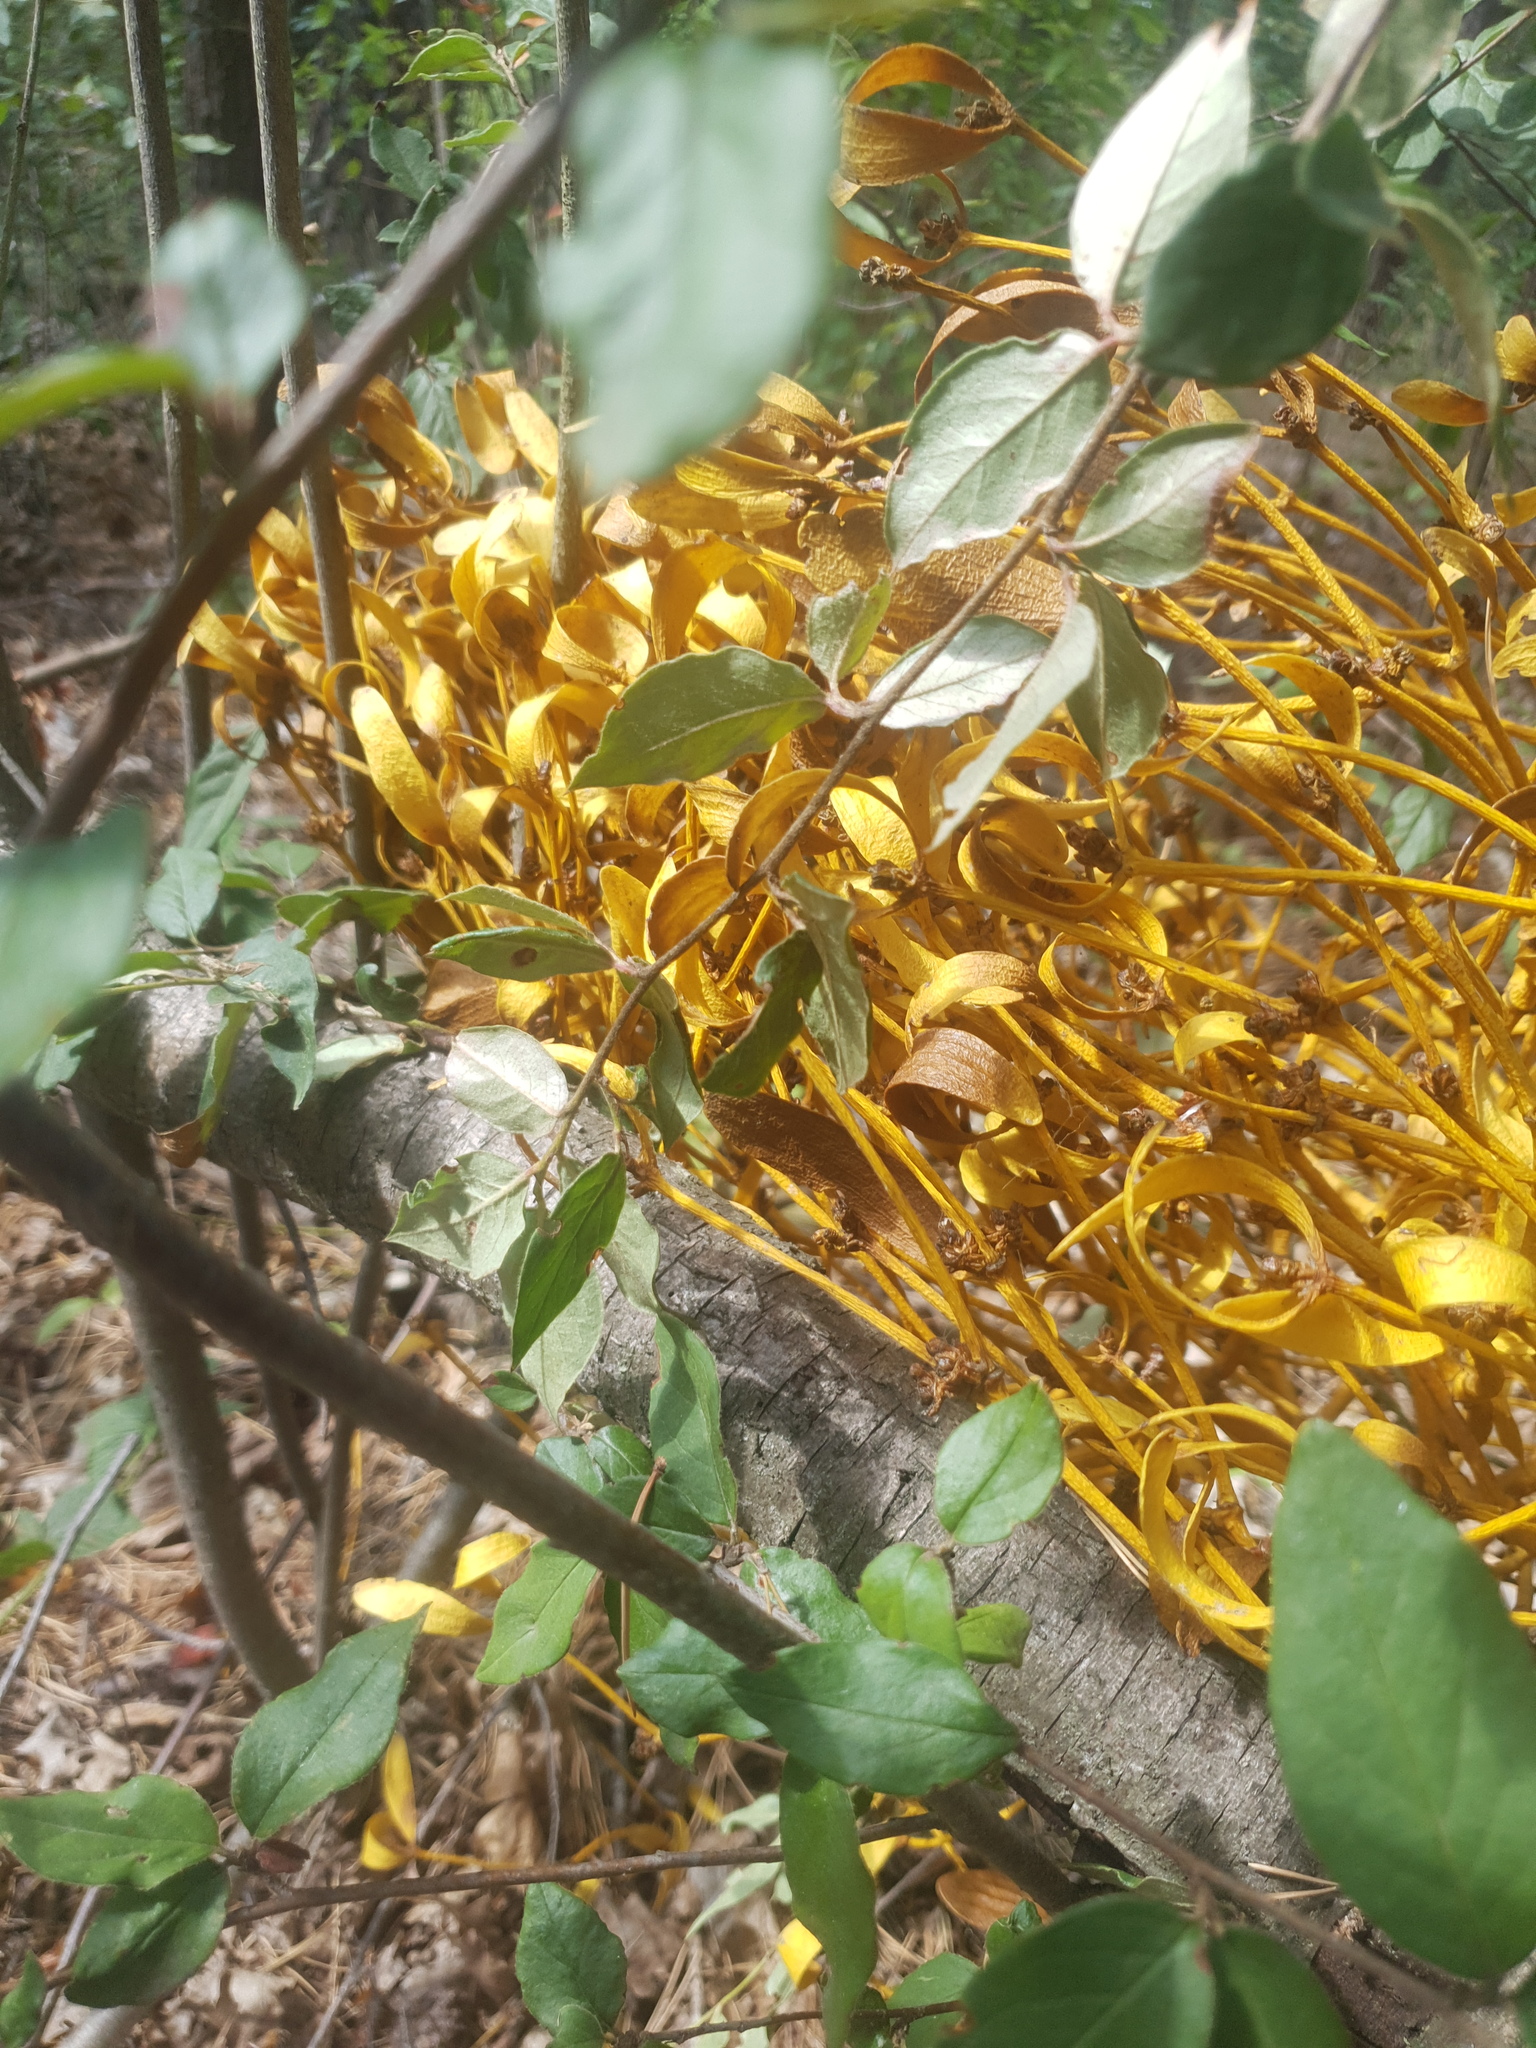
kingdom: Plantae
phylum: Tracheophyta
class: Magnoliopsida
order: Santalales
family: Viscaceae
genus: Viscum
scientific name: Viscum album
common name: Mistletoe
